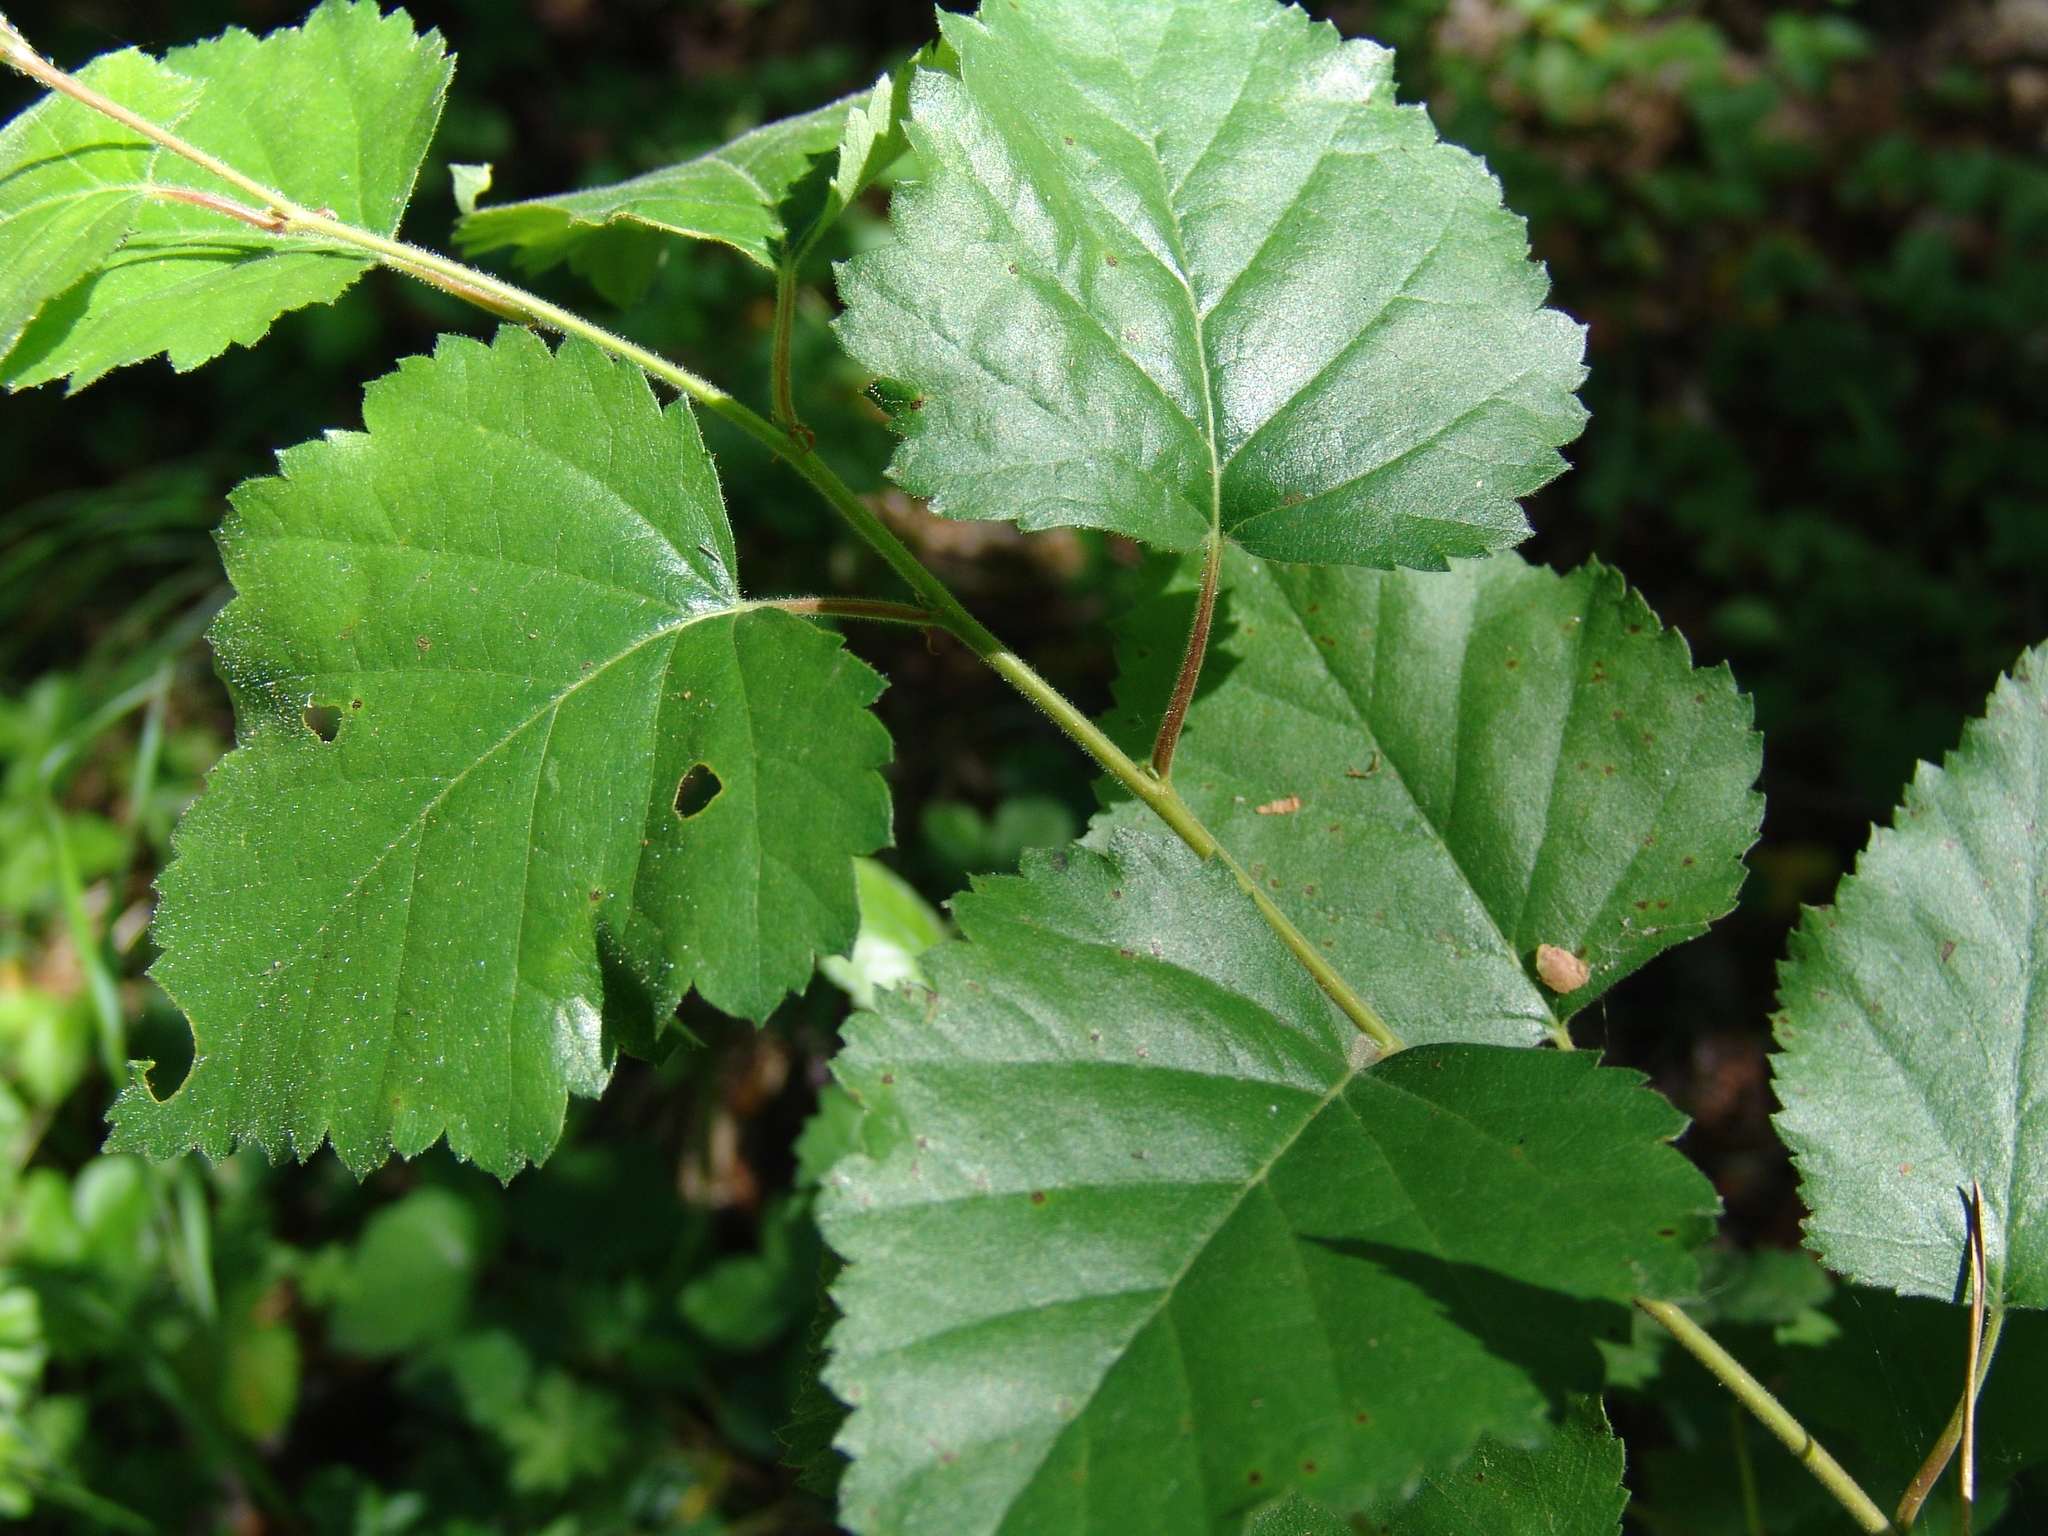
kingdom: Plantae
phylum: Tracheophyta
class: Magnoliopsida
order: Fagales
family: Betulaceae
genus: Betula
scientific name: Betula pubescens
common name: Downy birch
